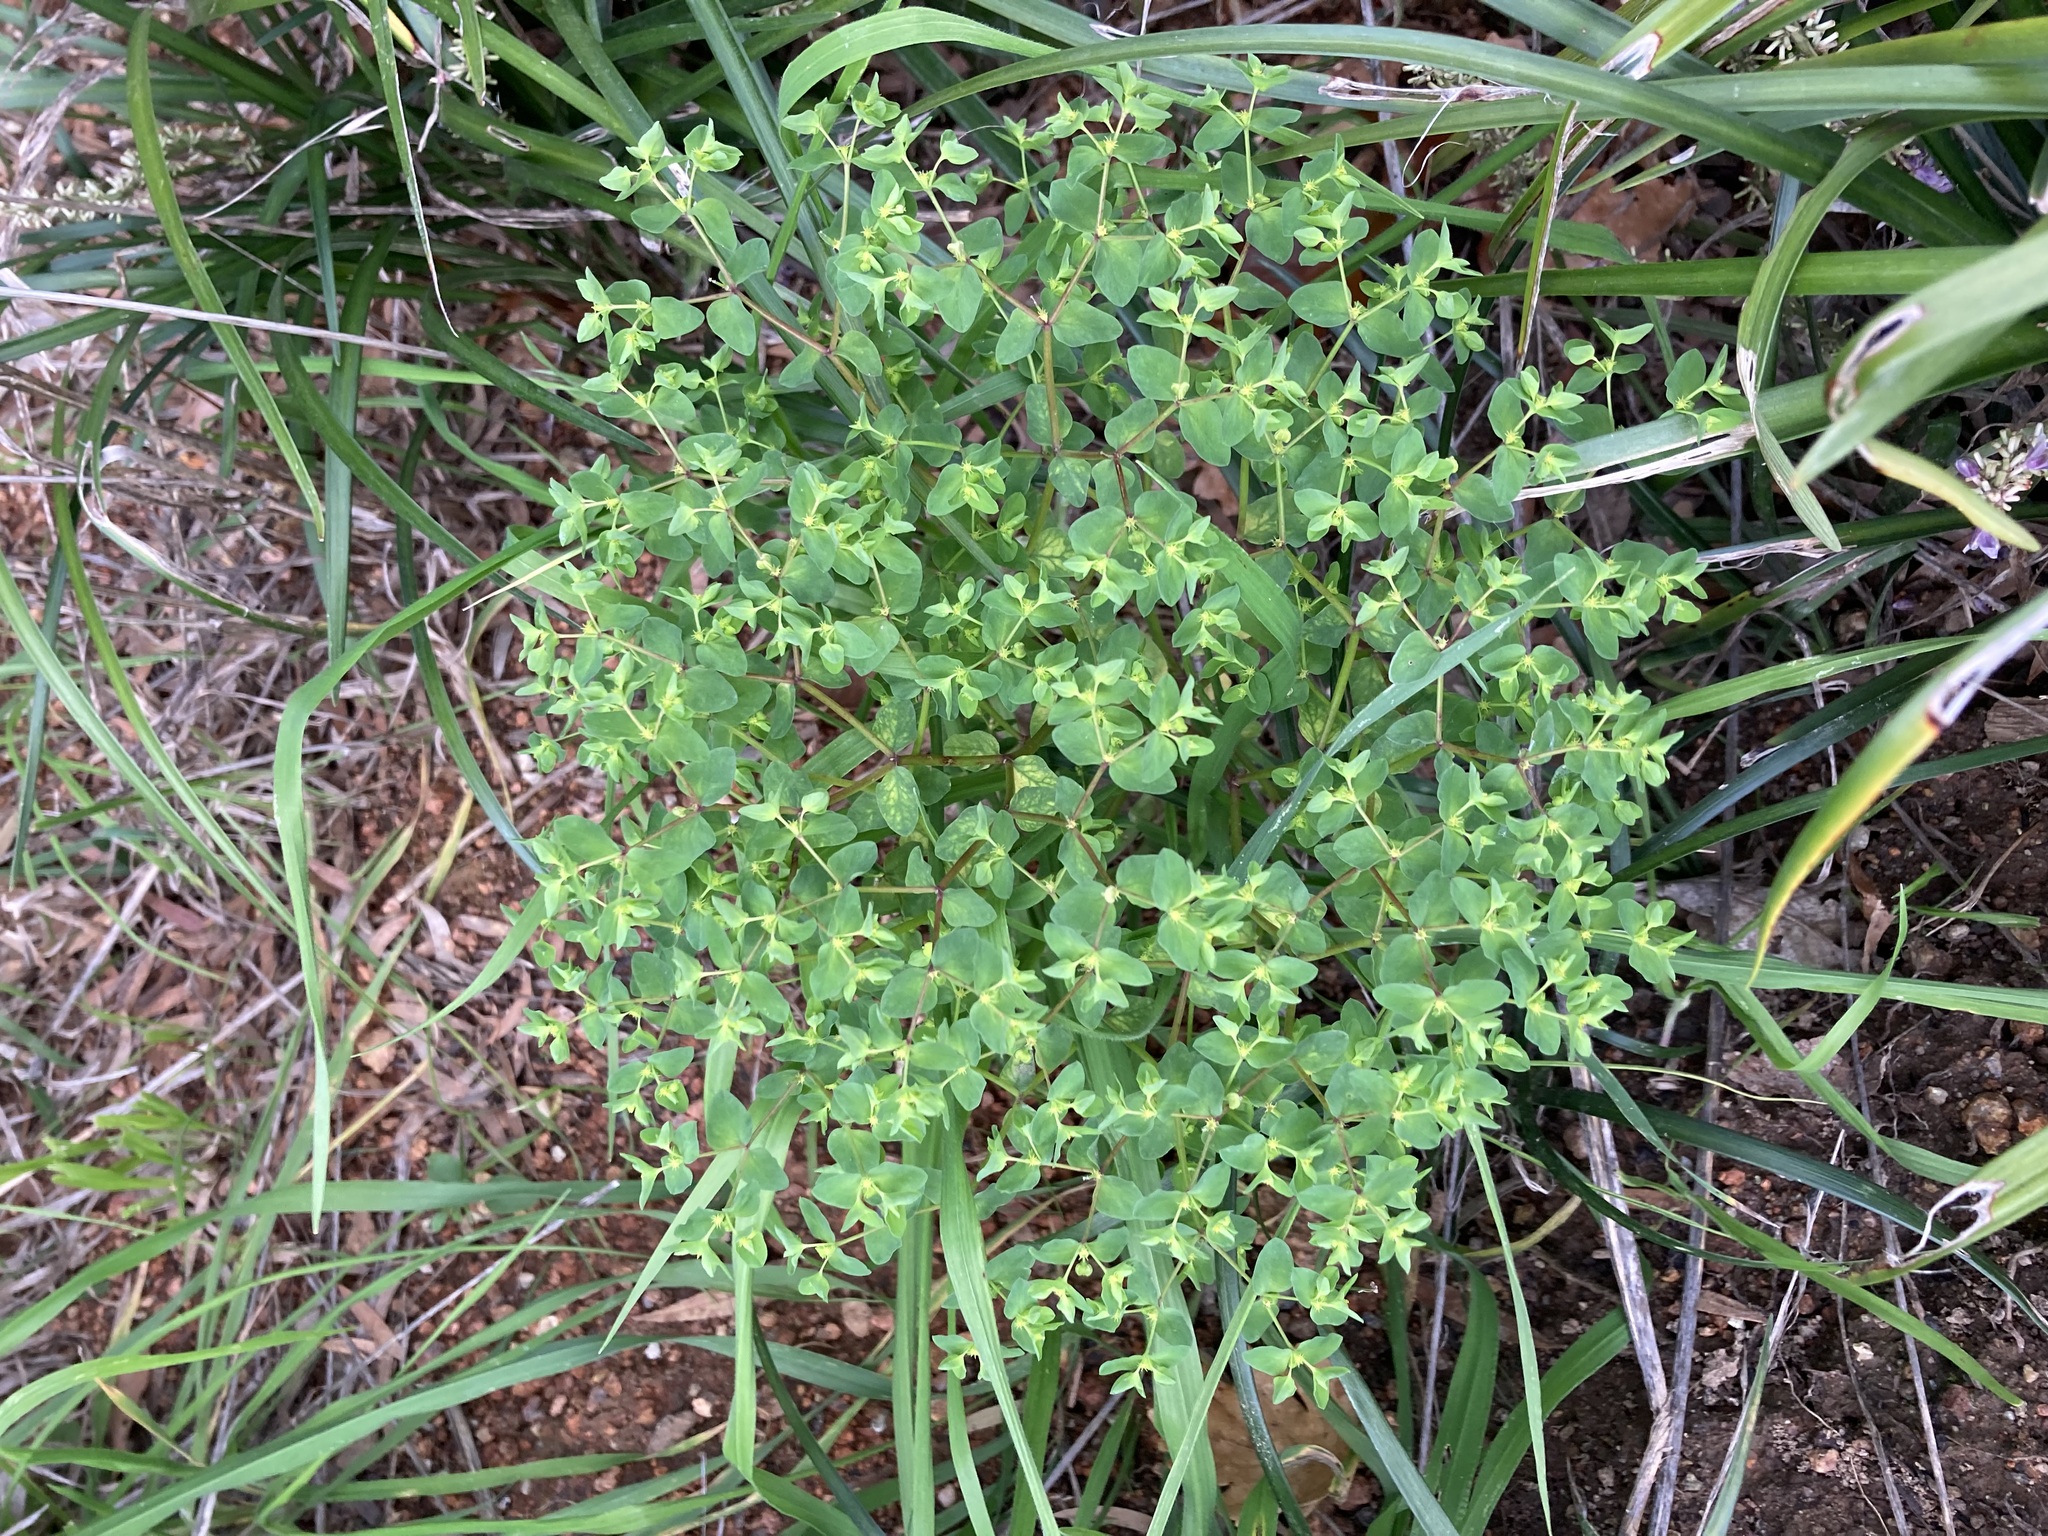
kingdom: Plantae
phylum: Tracheophyta
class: Magnoliopsida
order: Malpighiales
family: Euphorbiaceae
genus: Euphorbia
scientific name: Euphorbia peplus
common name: Petty spurge
